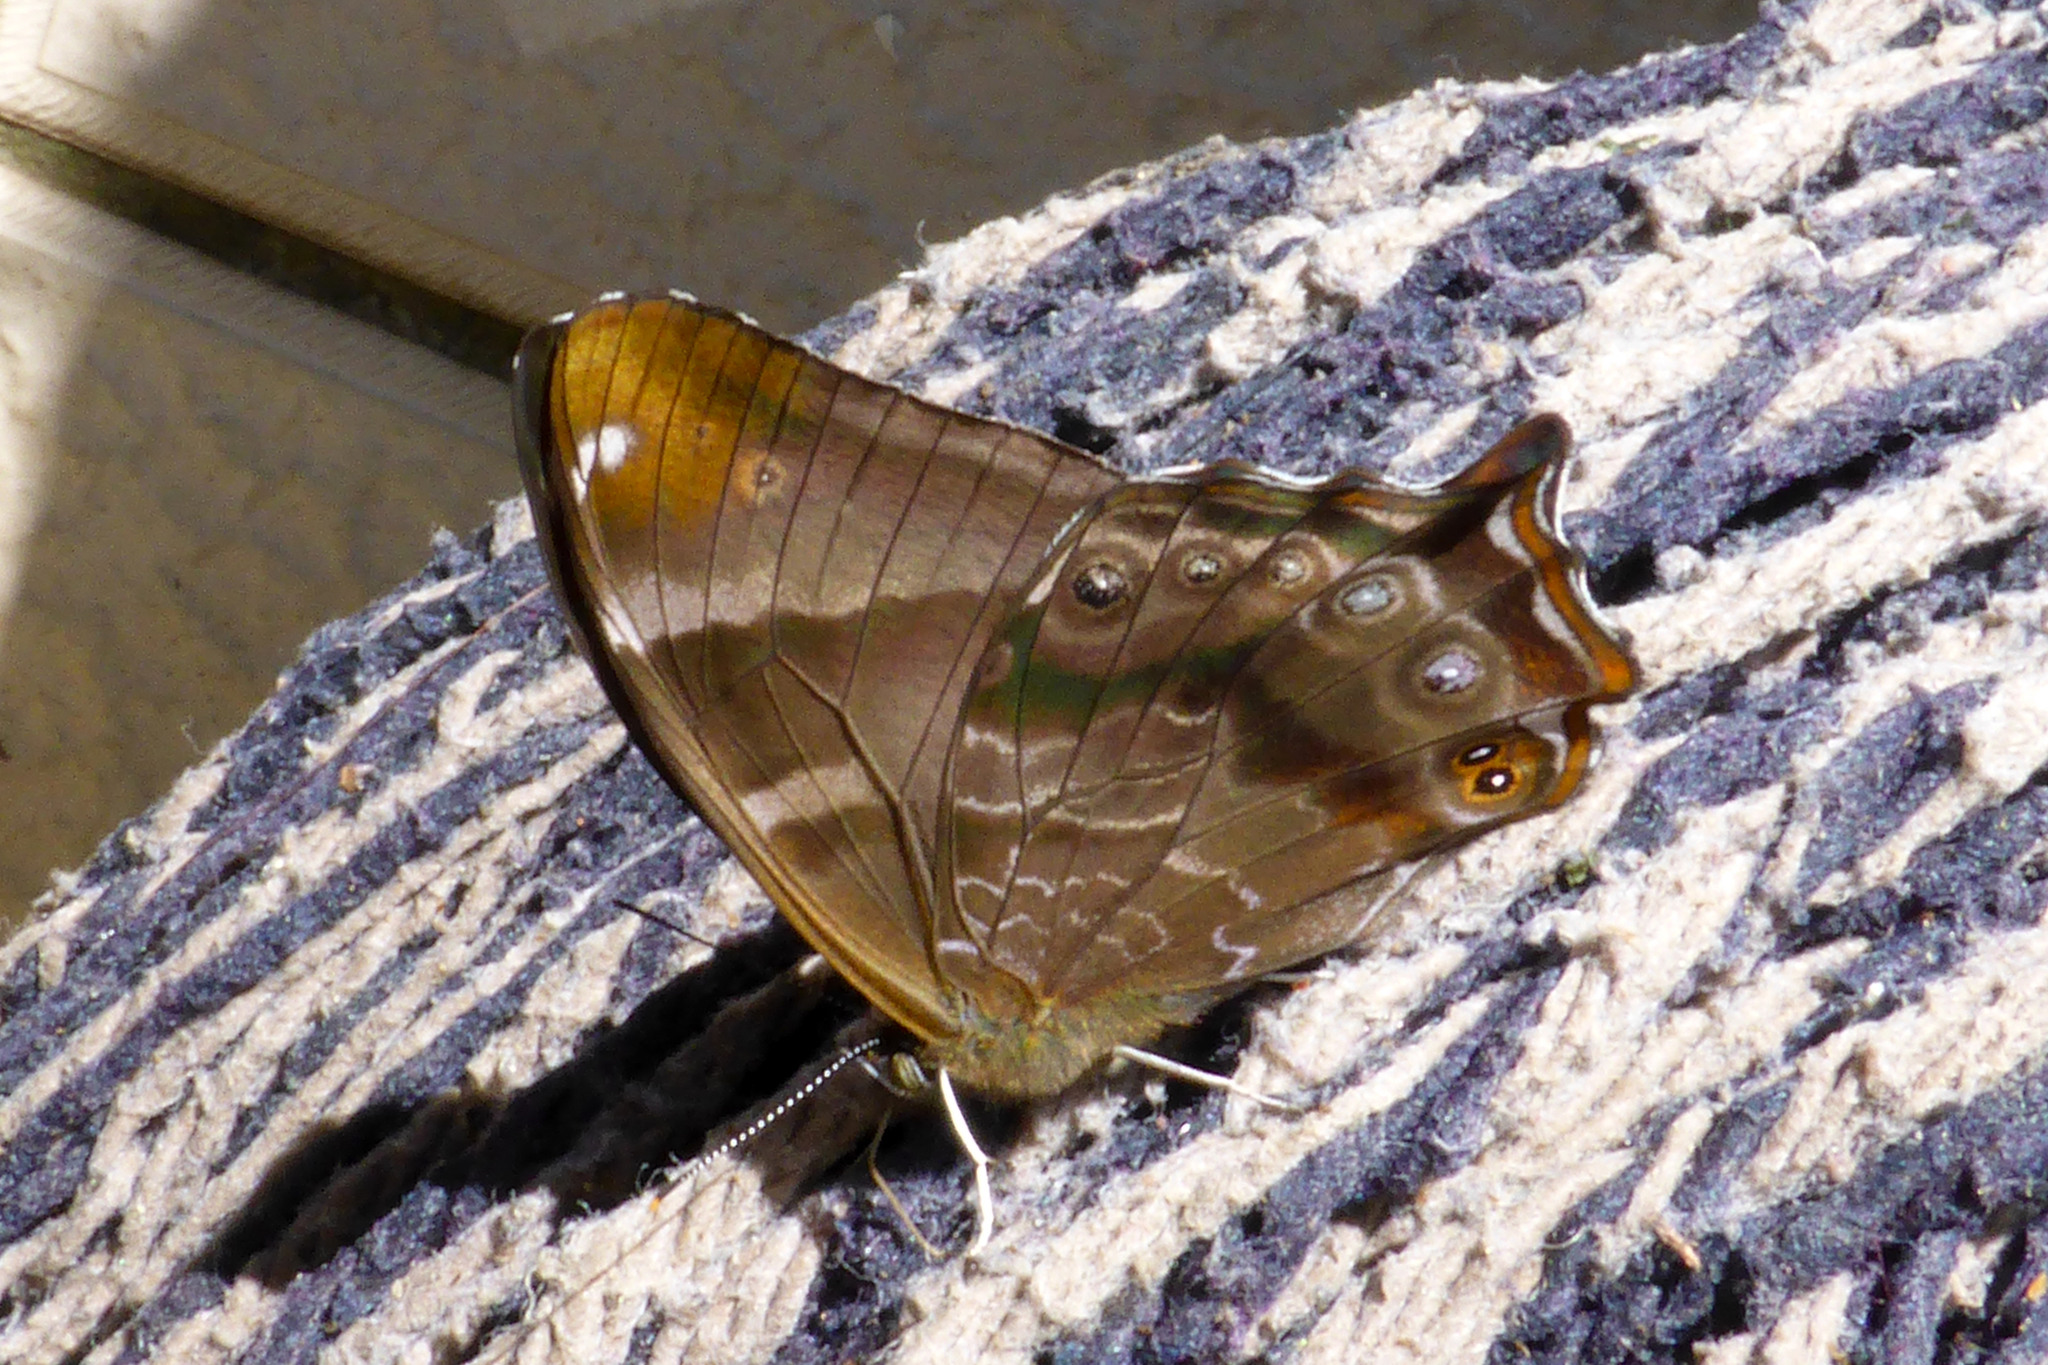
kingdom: Animalia
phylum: Arthropoda
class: Insecta
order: Lepidoptera
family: Nymphalidae
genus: Lethe
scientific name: Lethe dura
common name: Scarce lilacfork
